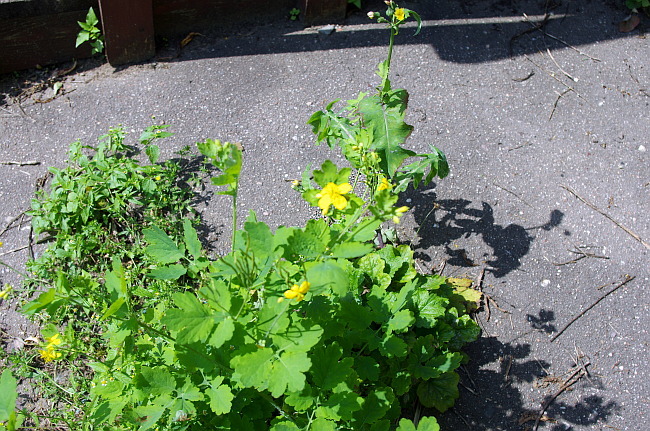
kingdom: Plantae
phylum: Tracheophyta
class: Magnoliopsida
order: Ranunculales
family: Papaveraceae
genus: Chelidonium
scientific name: Chelidonium majus
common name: Greater celandine
